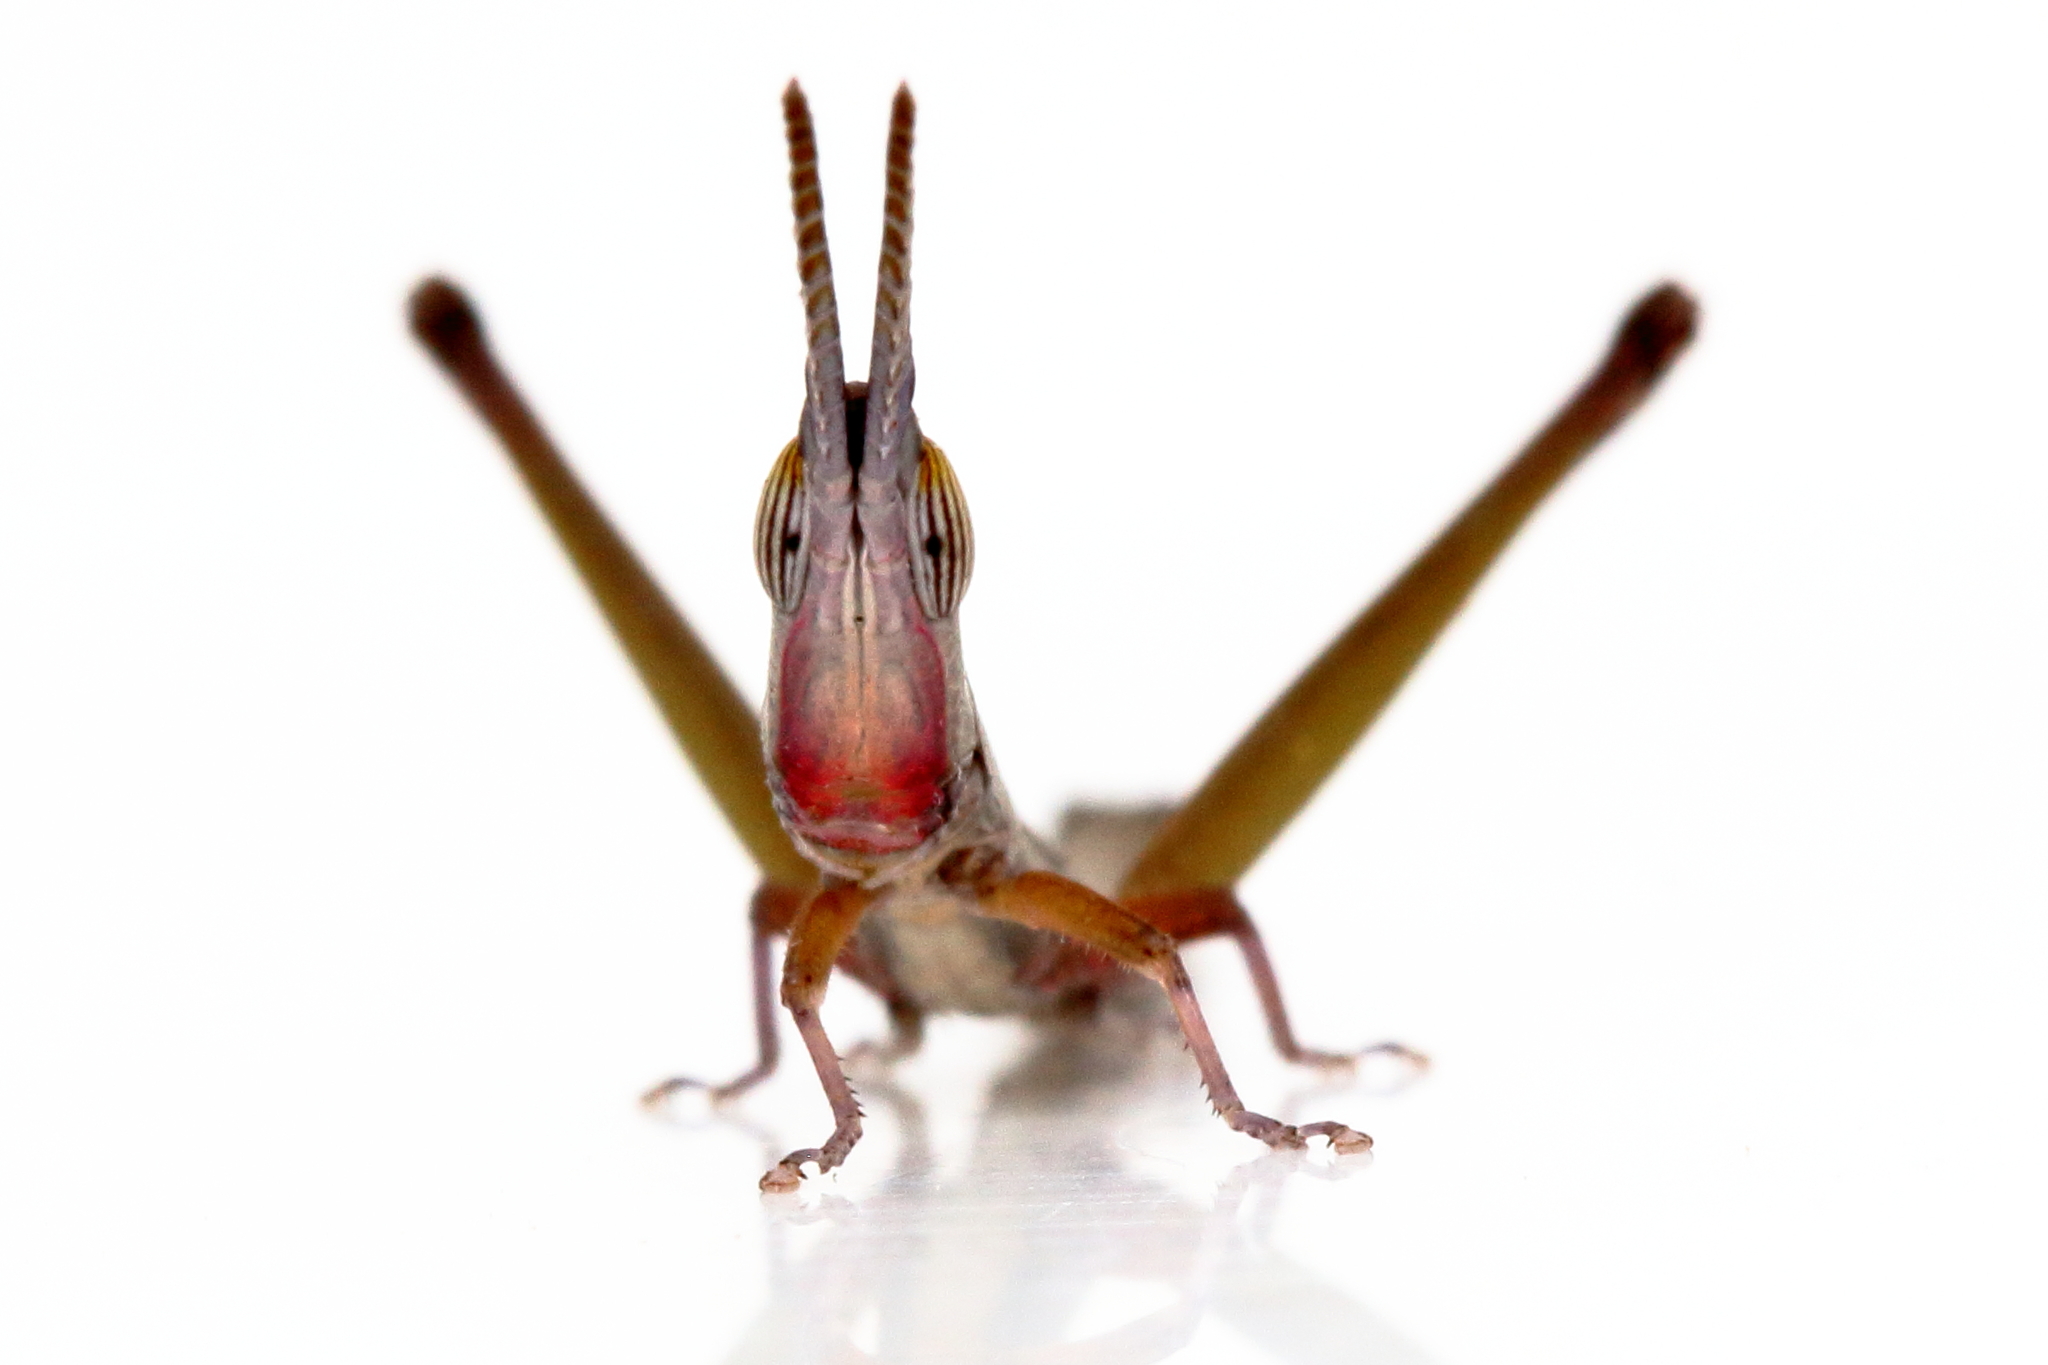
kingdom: Animalia
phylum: Arthropoda
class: Insecta
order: Orthoptera
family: Morabidae
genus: Warramaba
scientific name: Warramaba grandis
